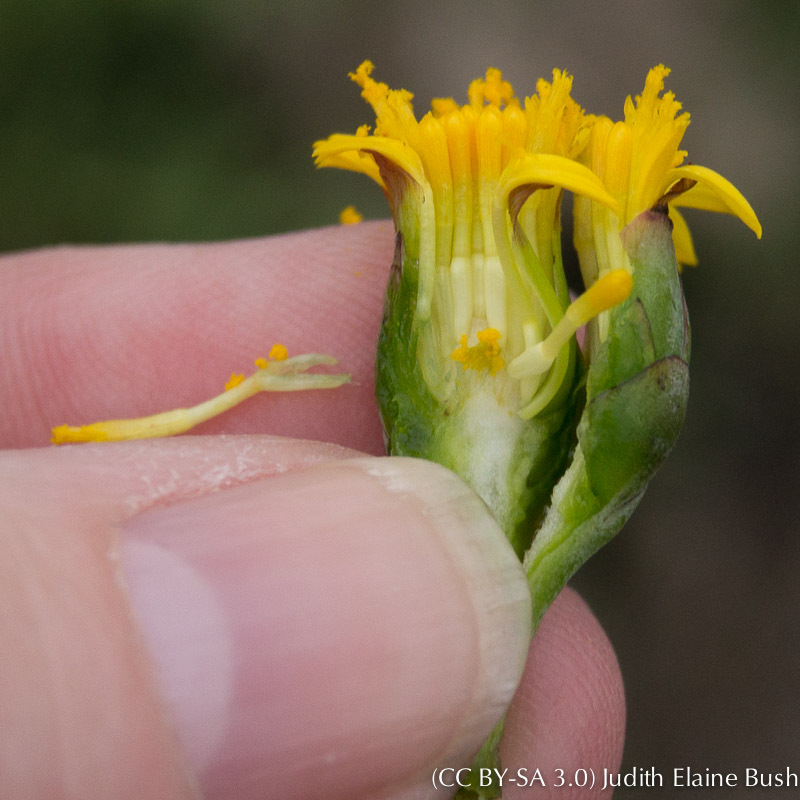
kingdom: Plantae
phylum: Tracheophyta
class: Magnoliopsida
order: Asterales
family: Asteraceae
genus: Jaumea
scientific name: Jaumea carnosa
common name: Fleshy jaumea
